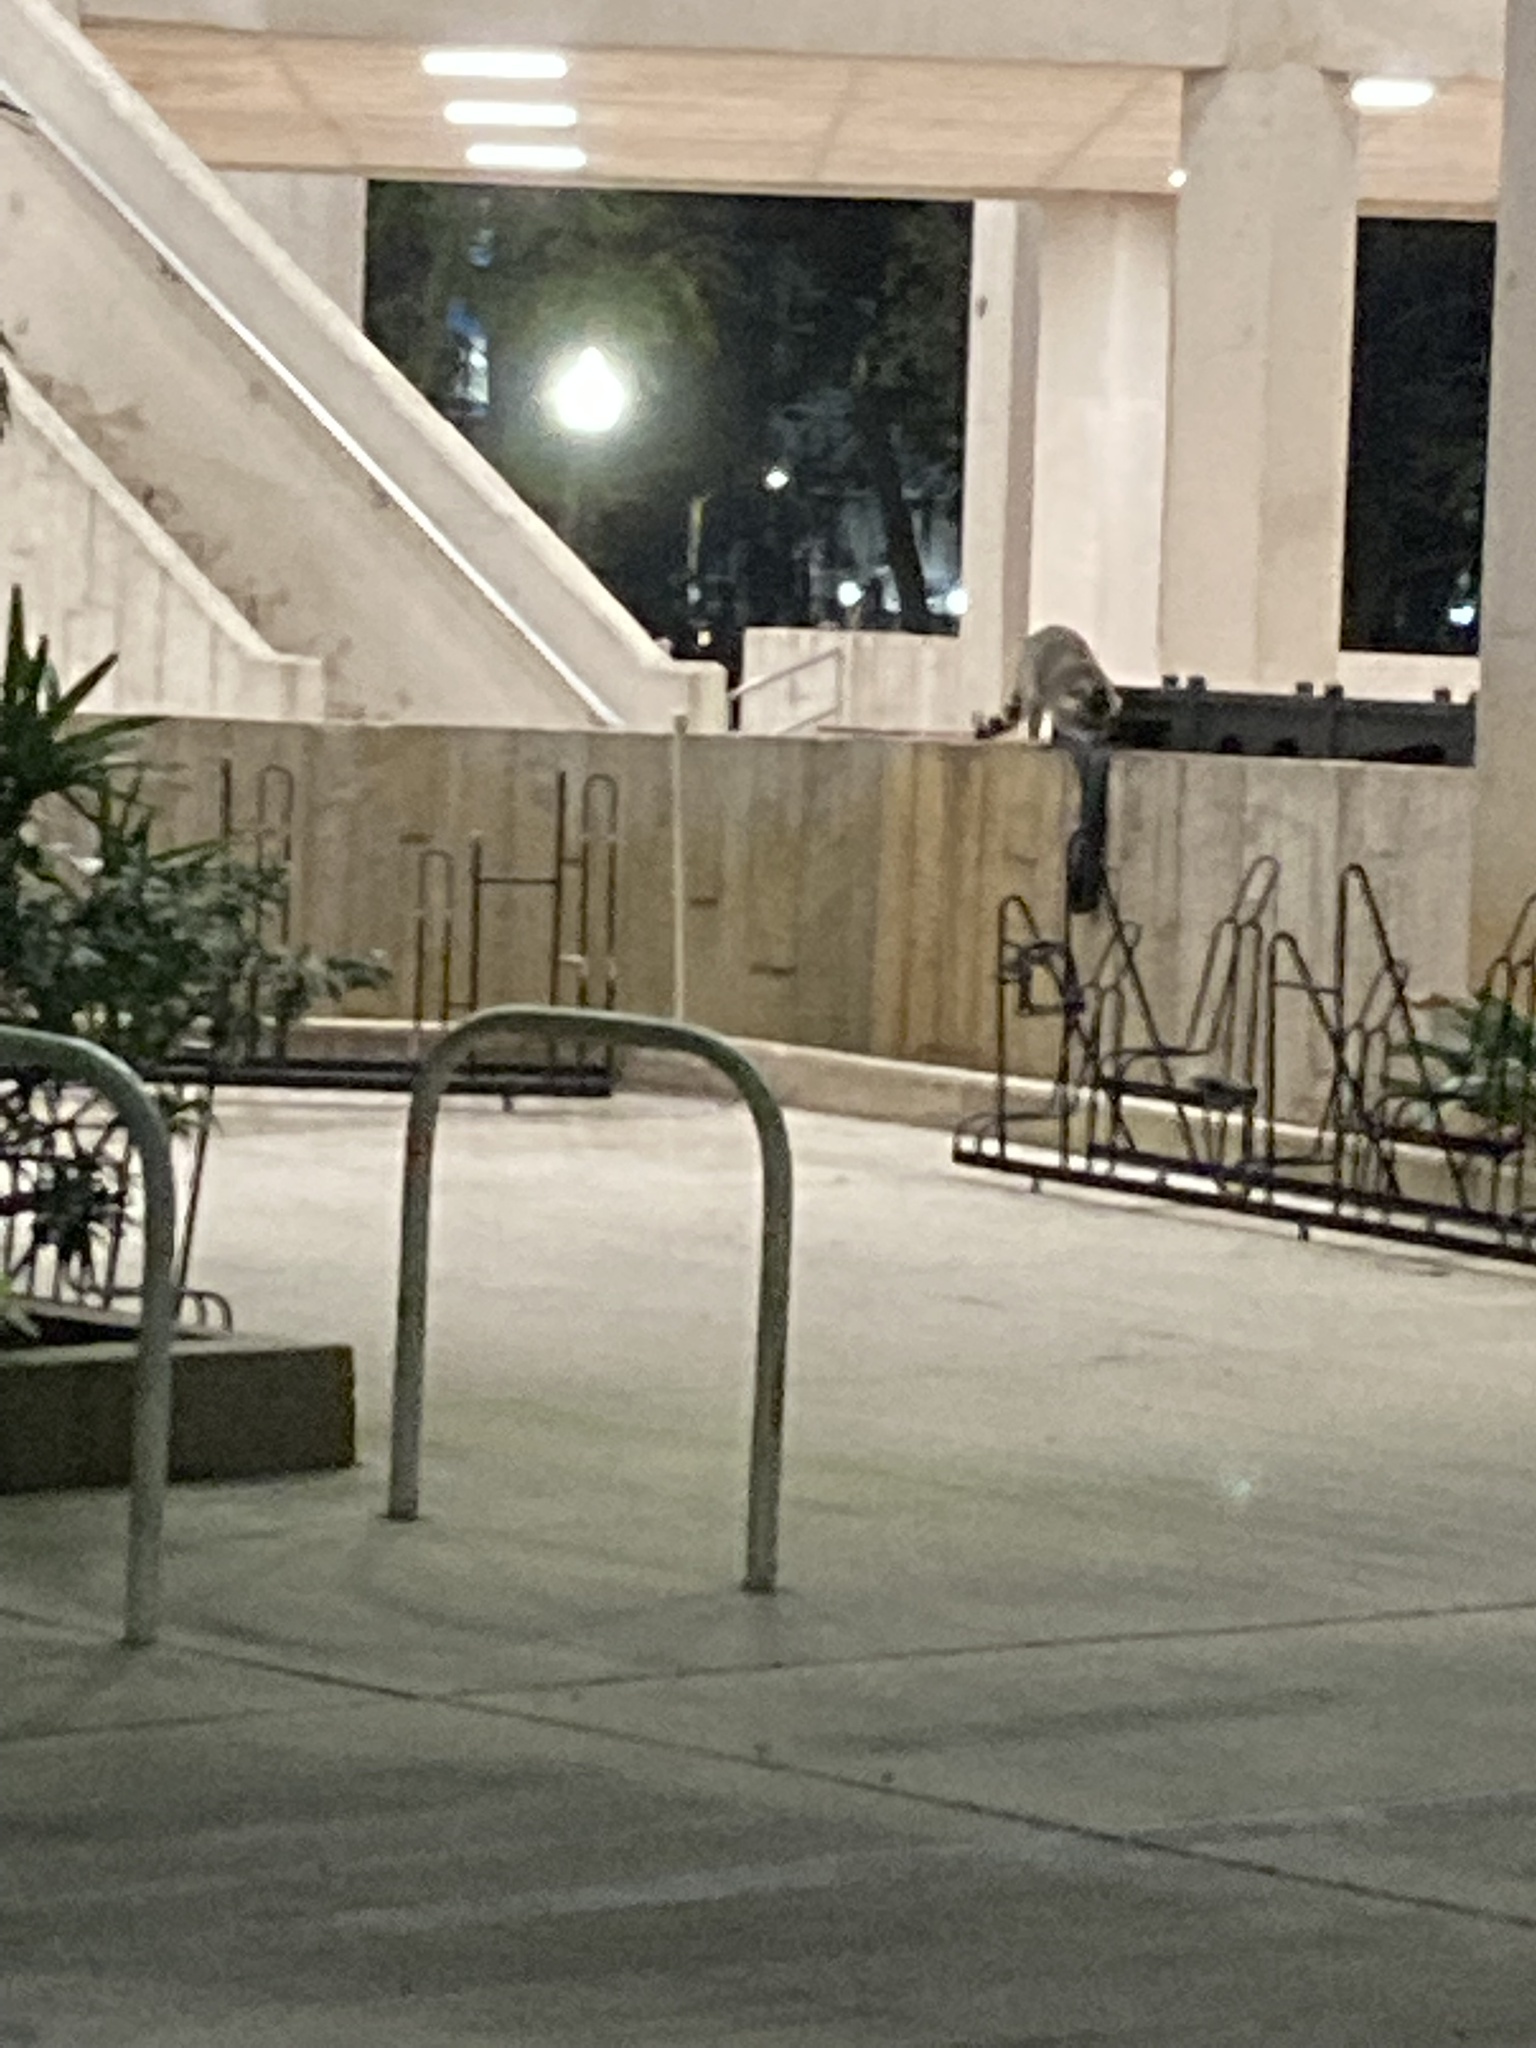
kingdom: Animalia
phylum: Chordata
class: Mammalia
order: Carnivora
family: Procyonidae
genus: Procyon
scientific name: Procyon lotor
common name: Raccoon
